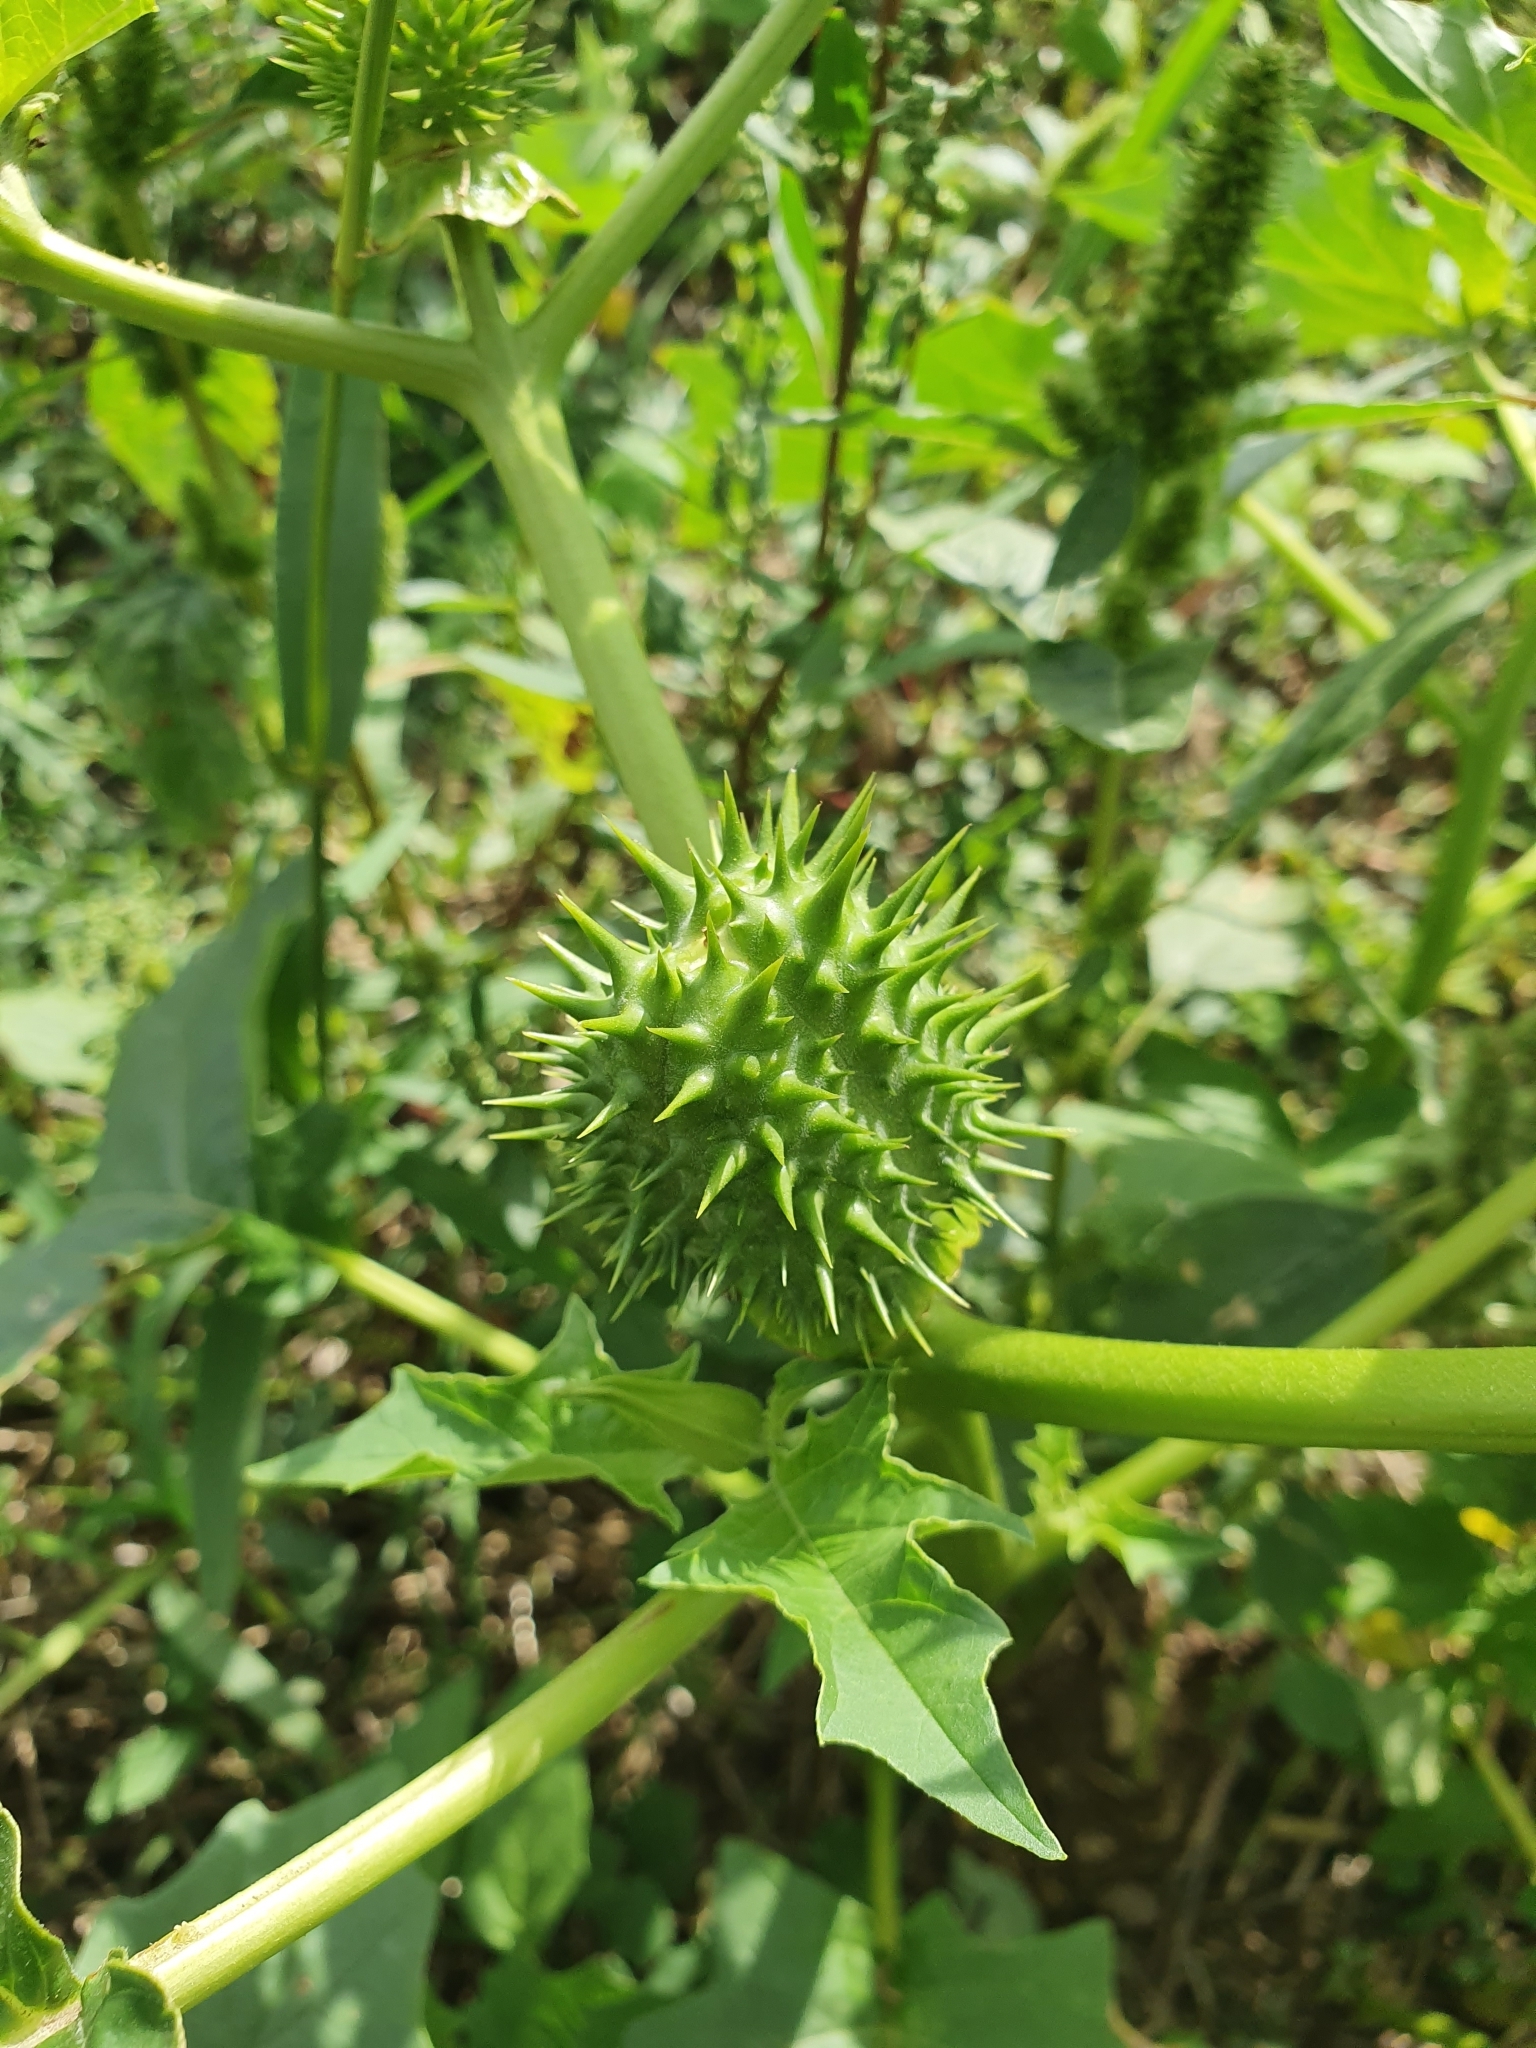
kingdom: Plantae
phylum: Tracheophyta
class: Magnoliopsida
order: Solanales
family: Solanaceae
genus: Datura
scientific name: Datura stramonium
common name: Thorn-apple
